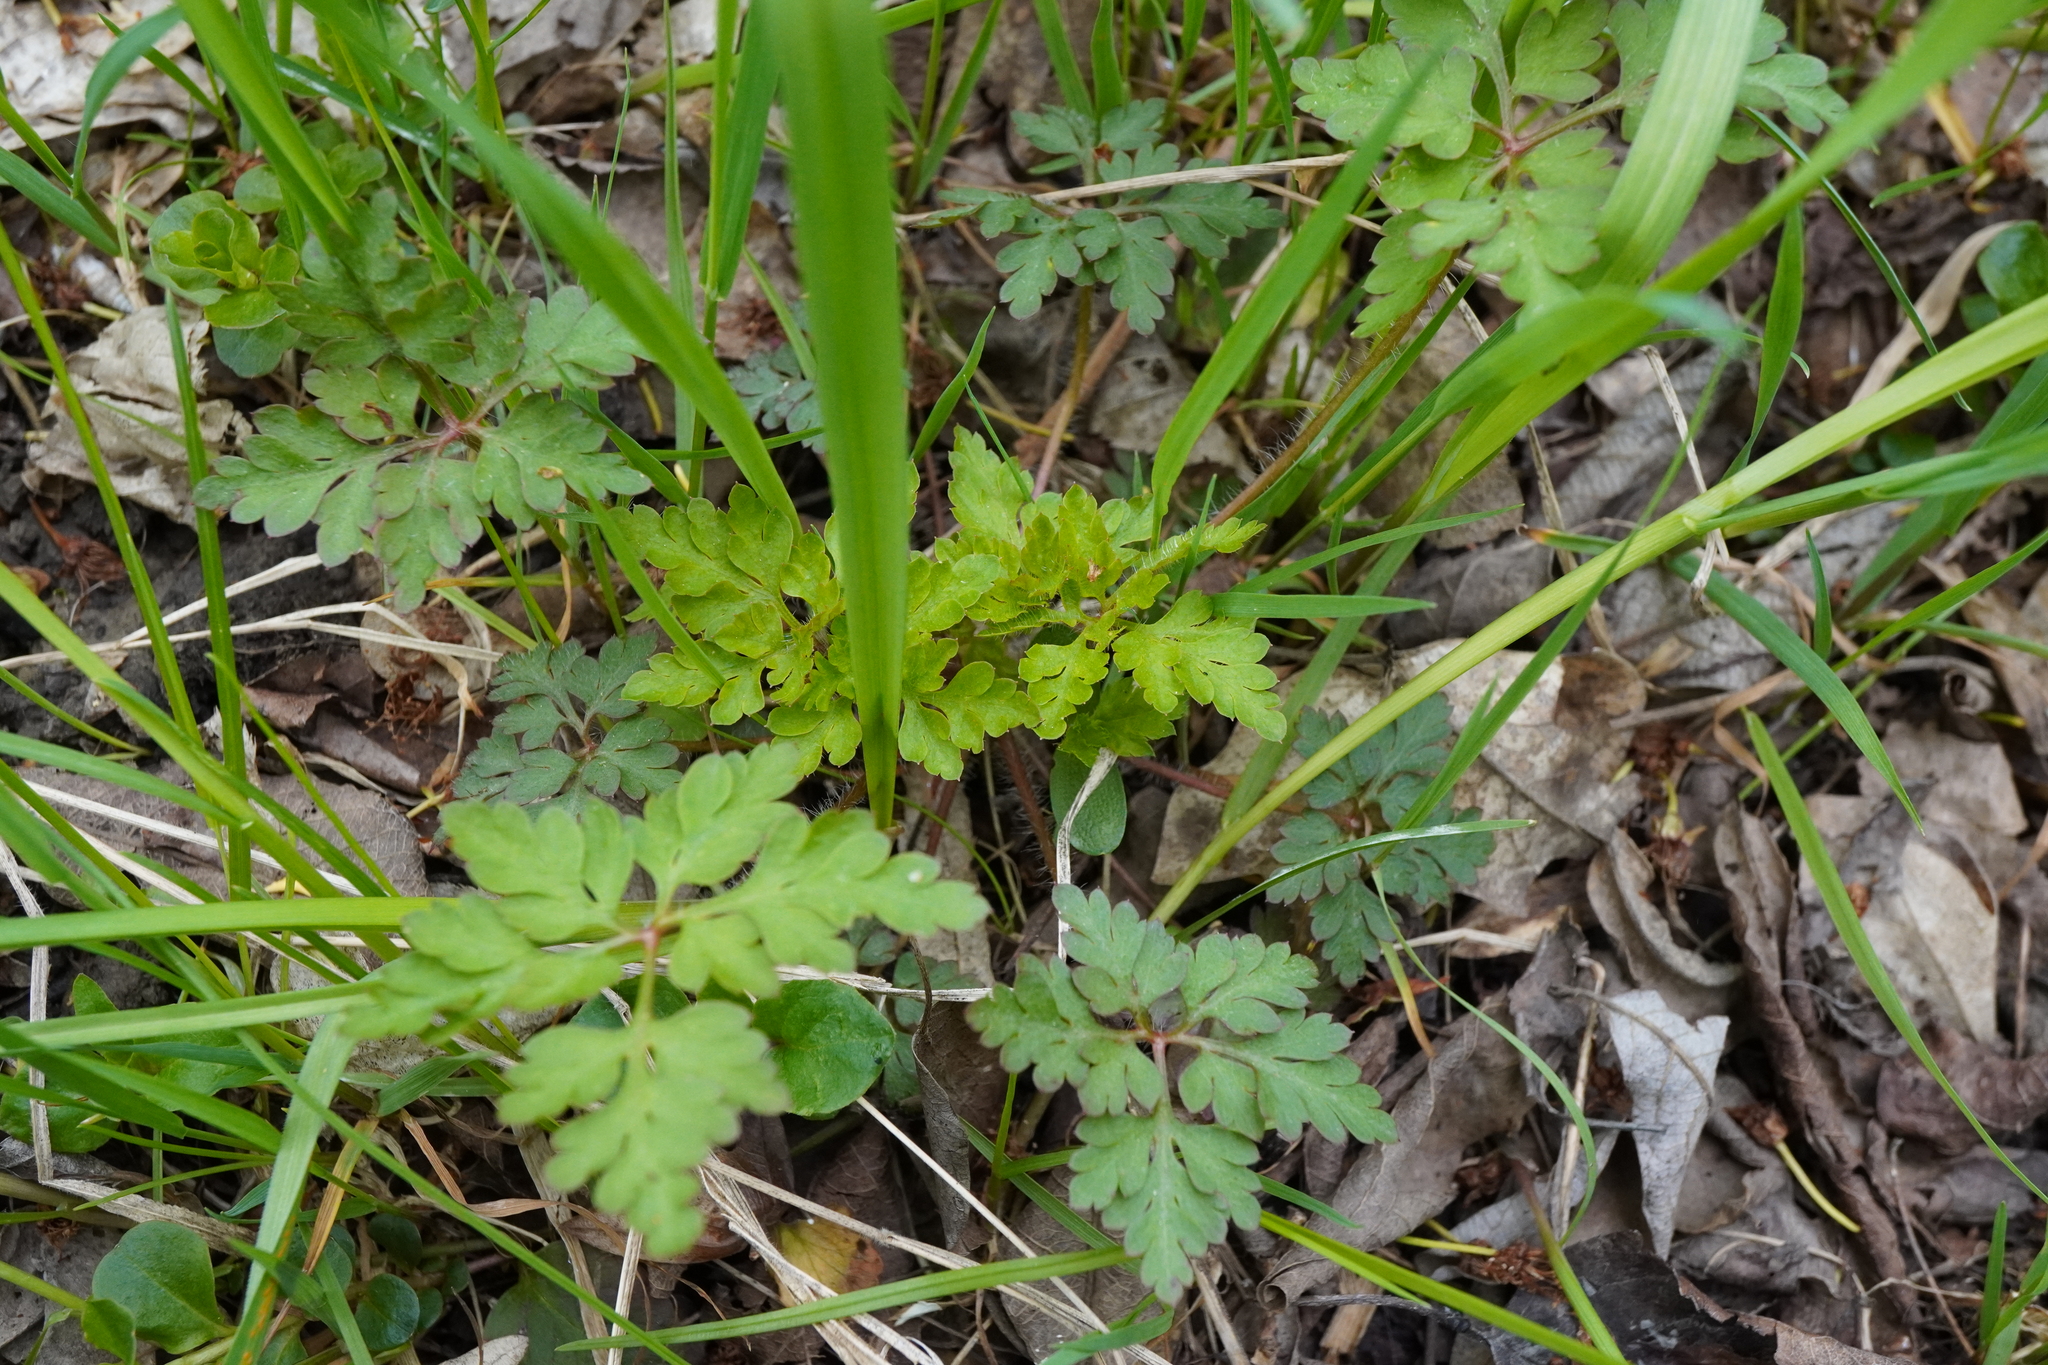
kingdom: Plantae
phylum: Tracheophyta
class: Magnoliopsida
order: Geraniales
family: Geraniaceae
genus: Geranium
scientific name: Geranium robertianum
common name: Herb-robert
